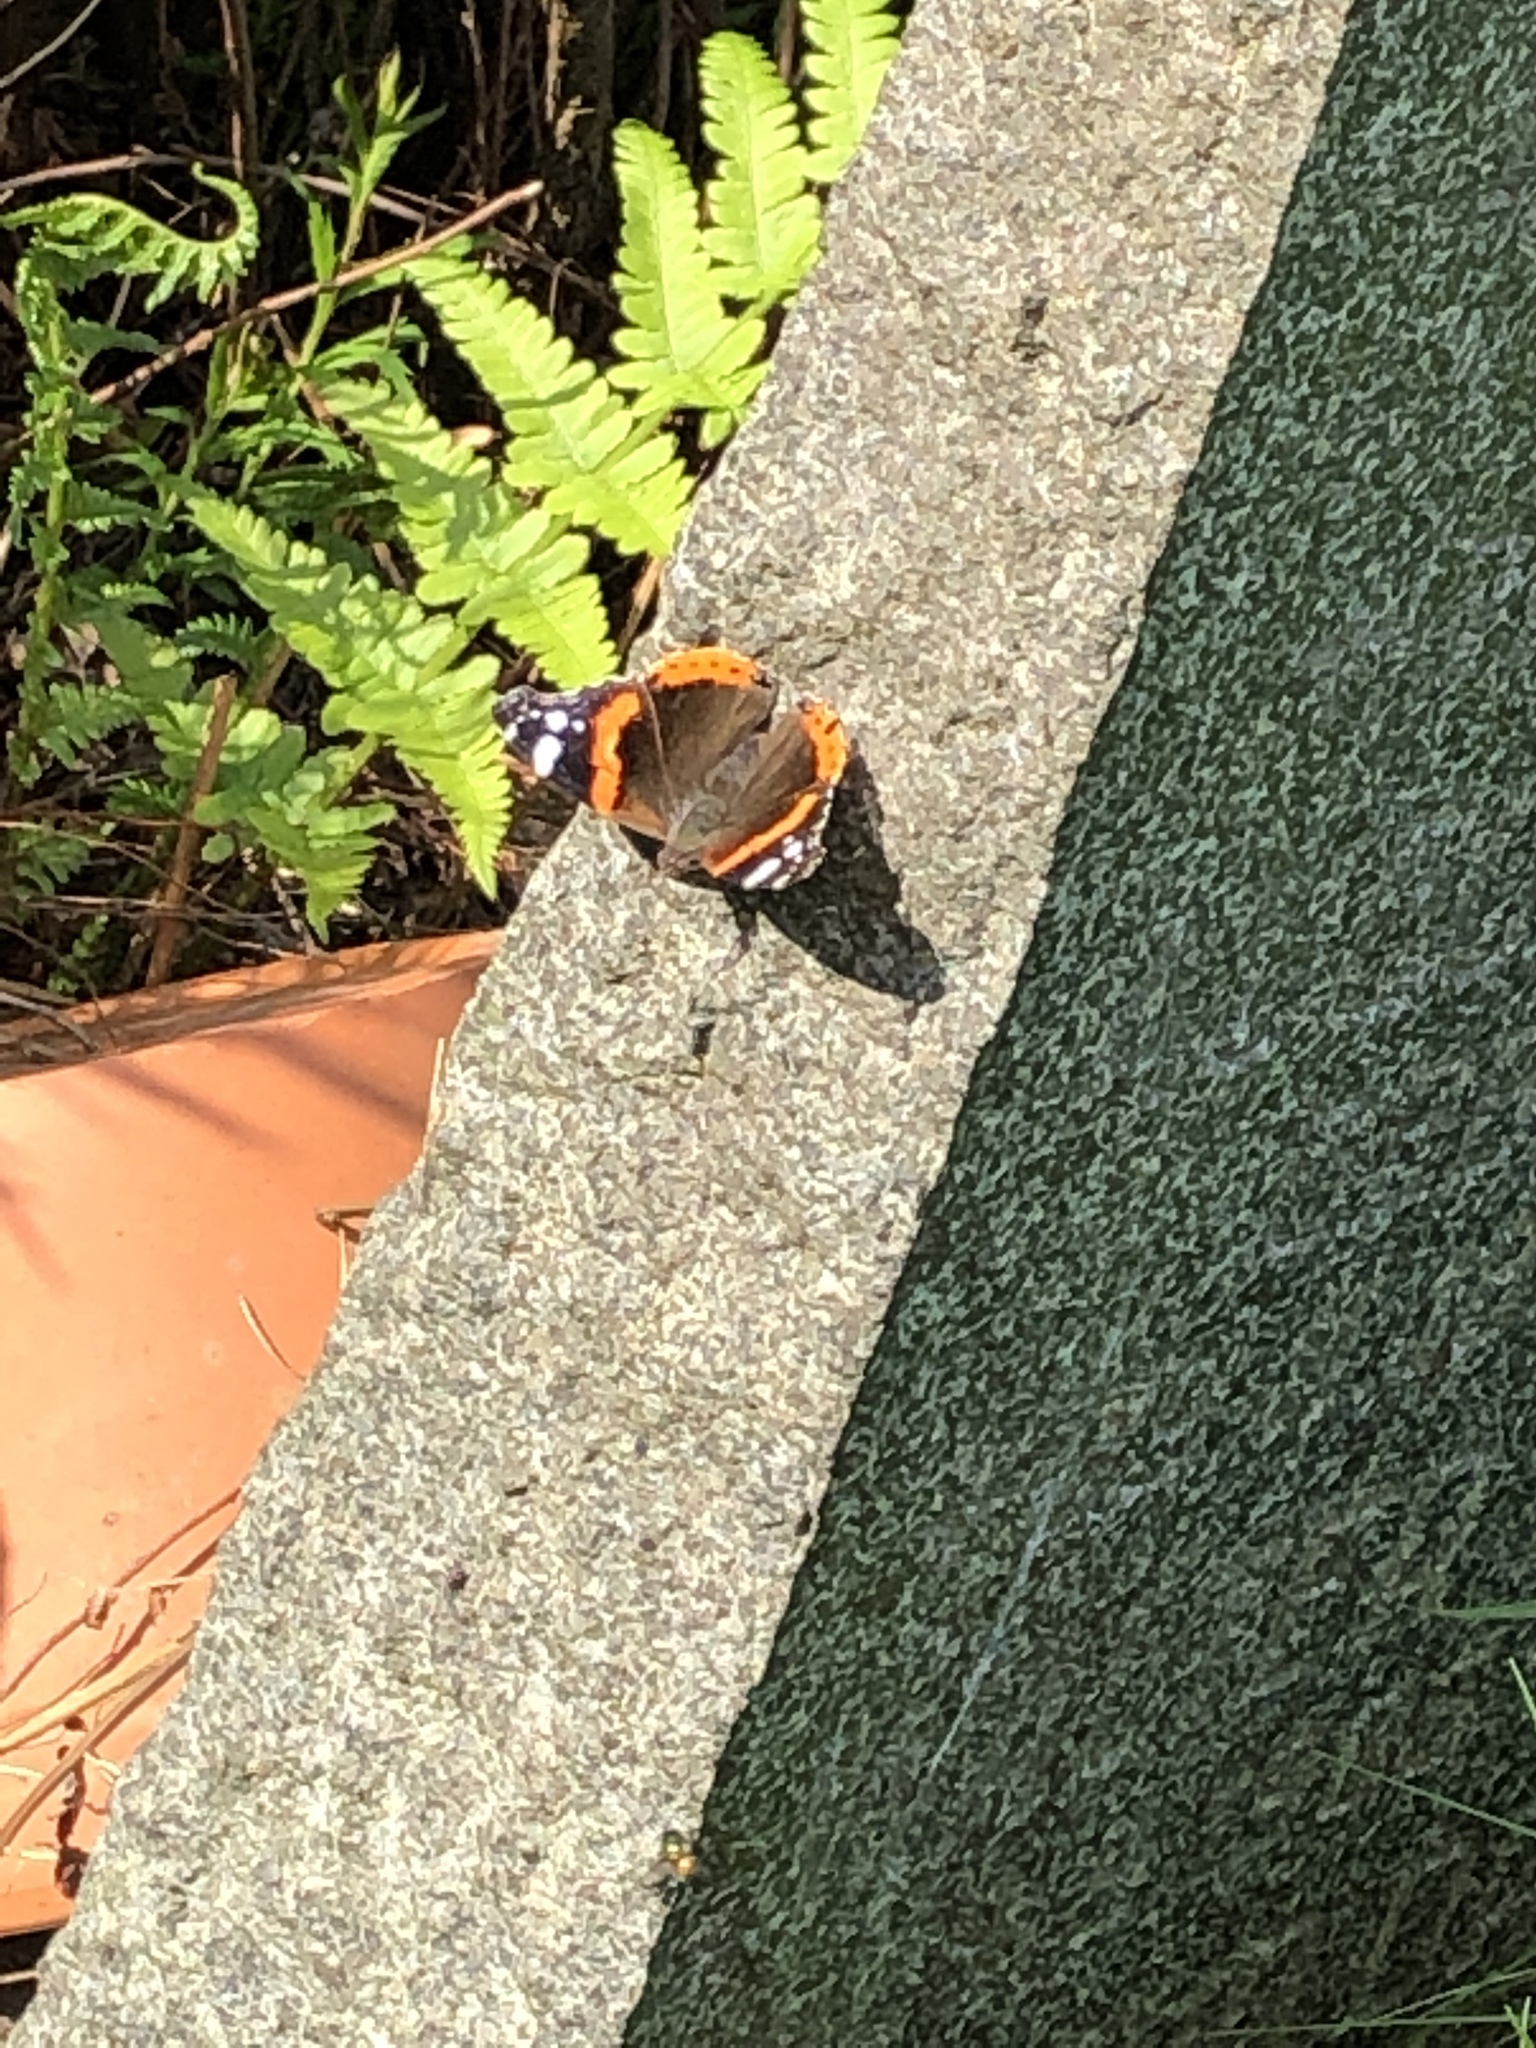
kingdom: Animalia
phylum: Arthropoda
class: Insecta
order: Lepidoptera
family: Nymphalidae
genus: Vanessa
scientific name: Vanessa atalanta
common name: Red admiral
